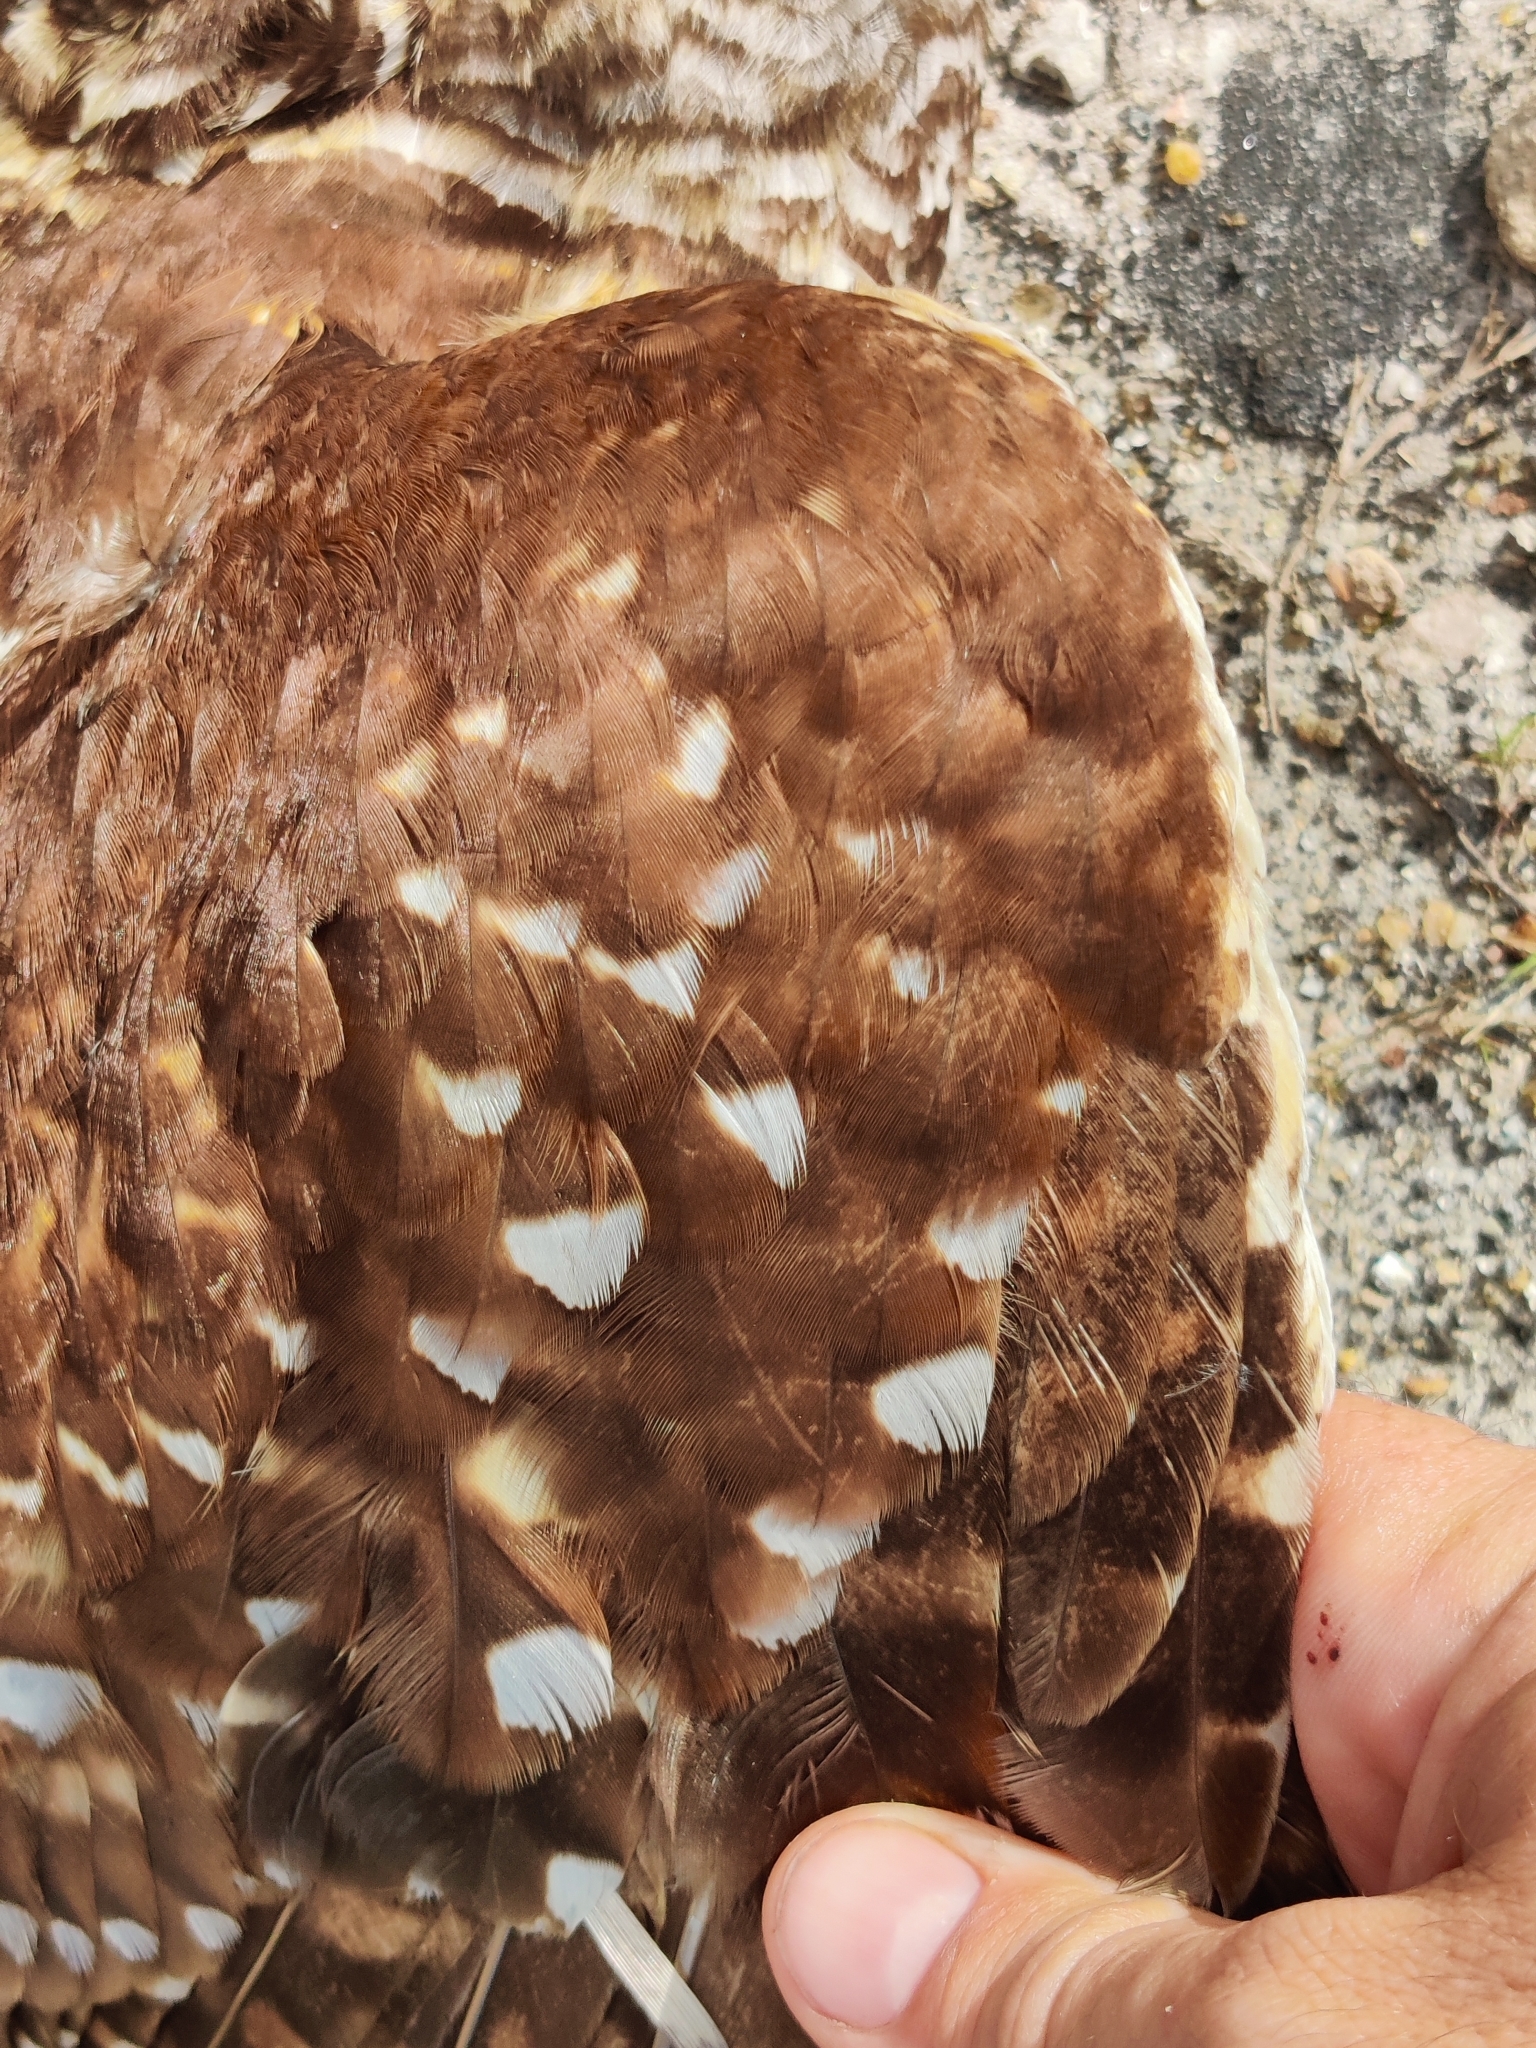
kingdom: Animalia
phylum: Chordata
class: Aves
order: Strigiformes
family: Strigidae
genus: Strix
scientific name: Strix varia
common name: Barred owl
